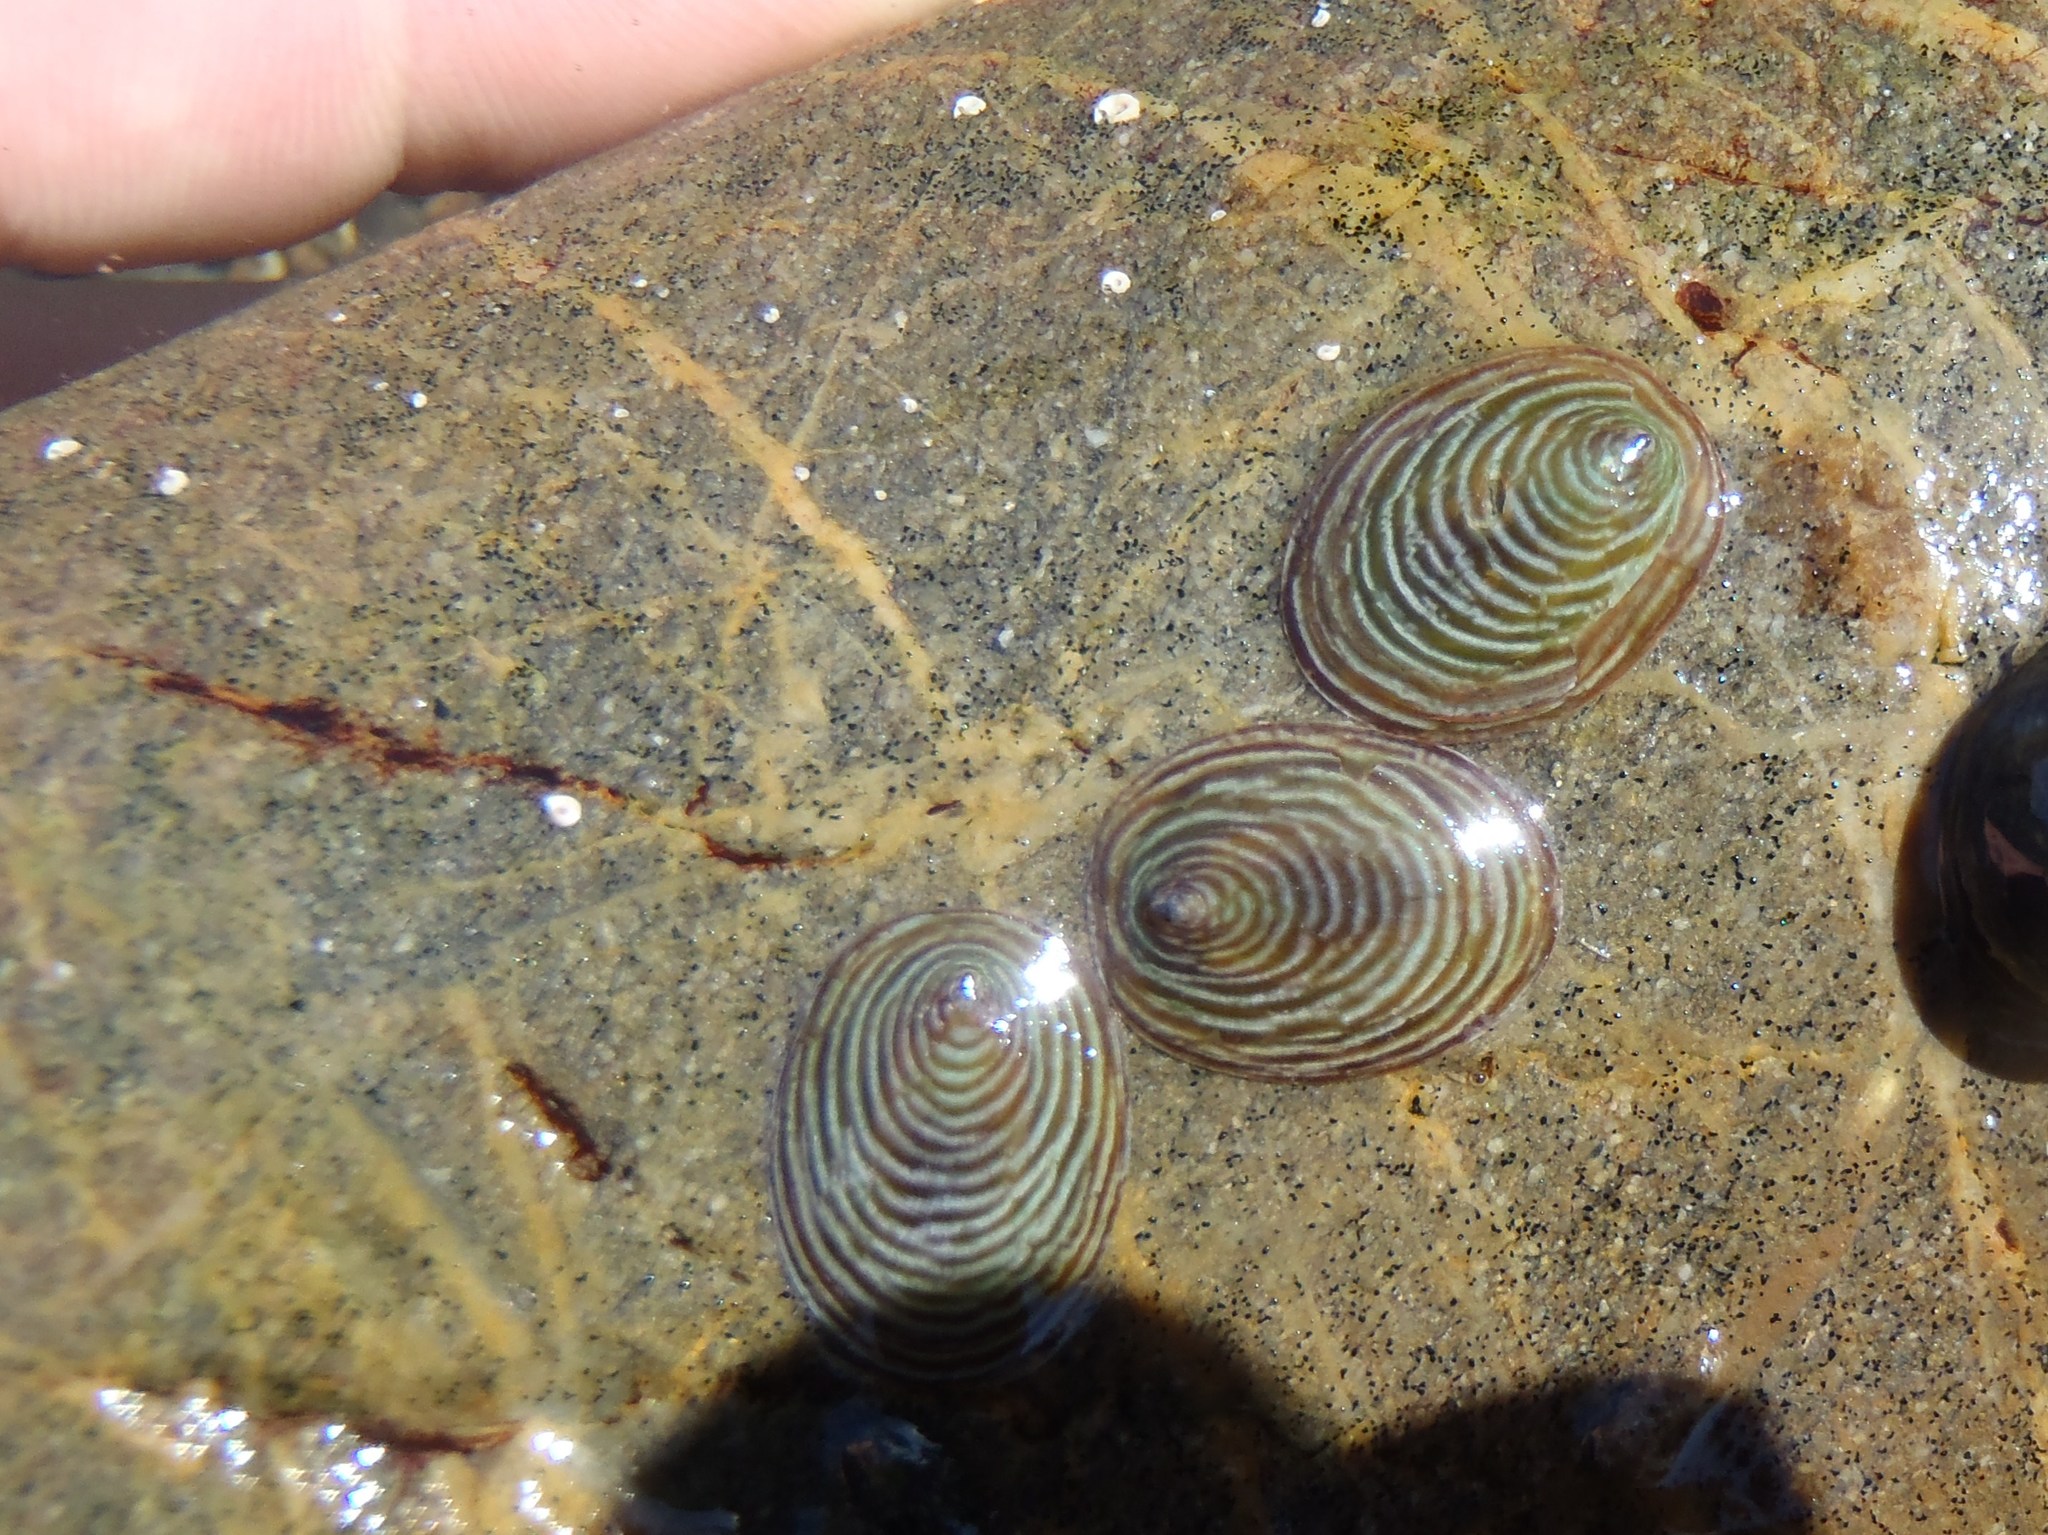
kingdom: Animalia
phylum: Mollusca
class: Gastropoda
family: Lottiidae
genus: Atalacmea
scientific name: Atalacmea fragilis
